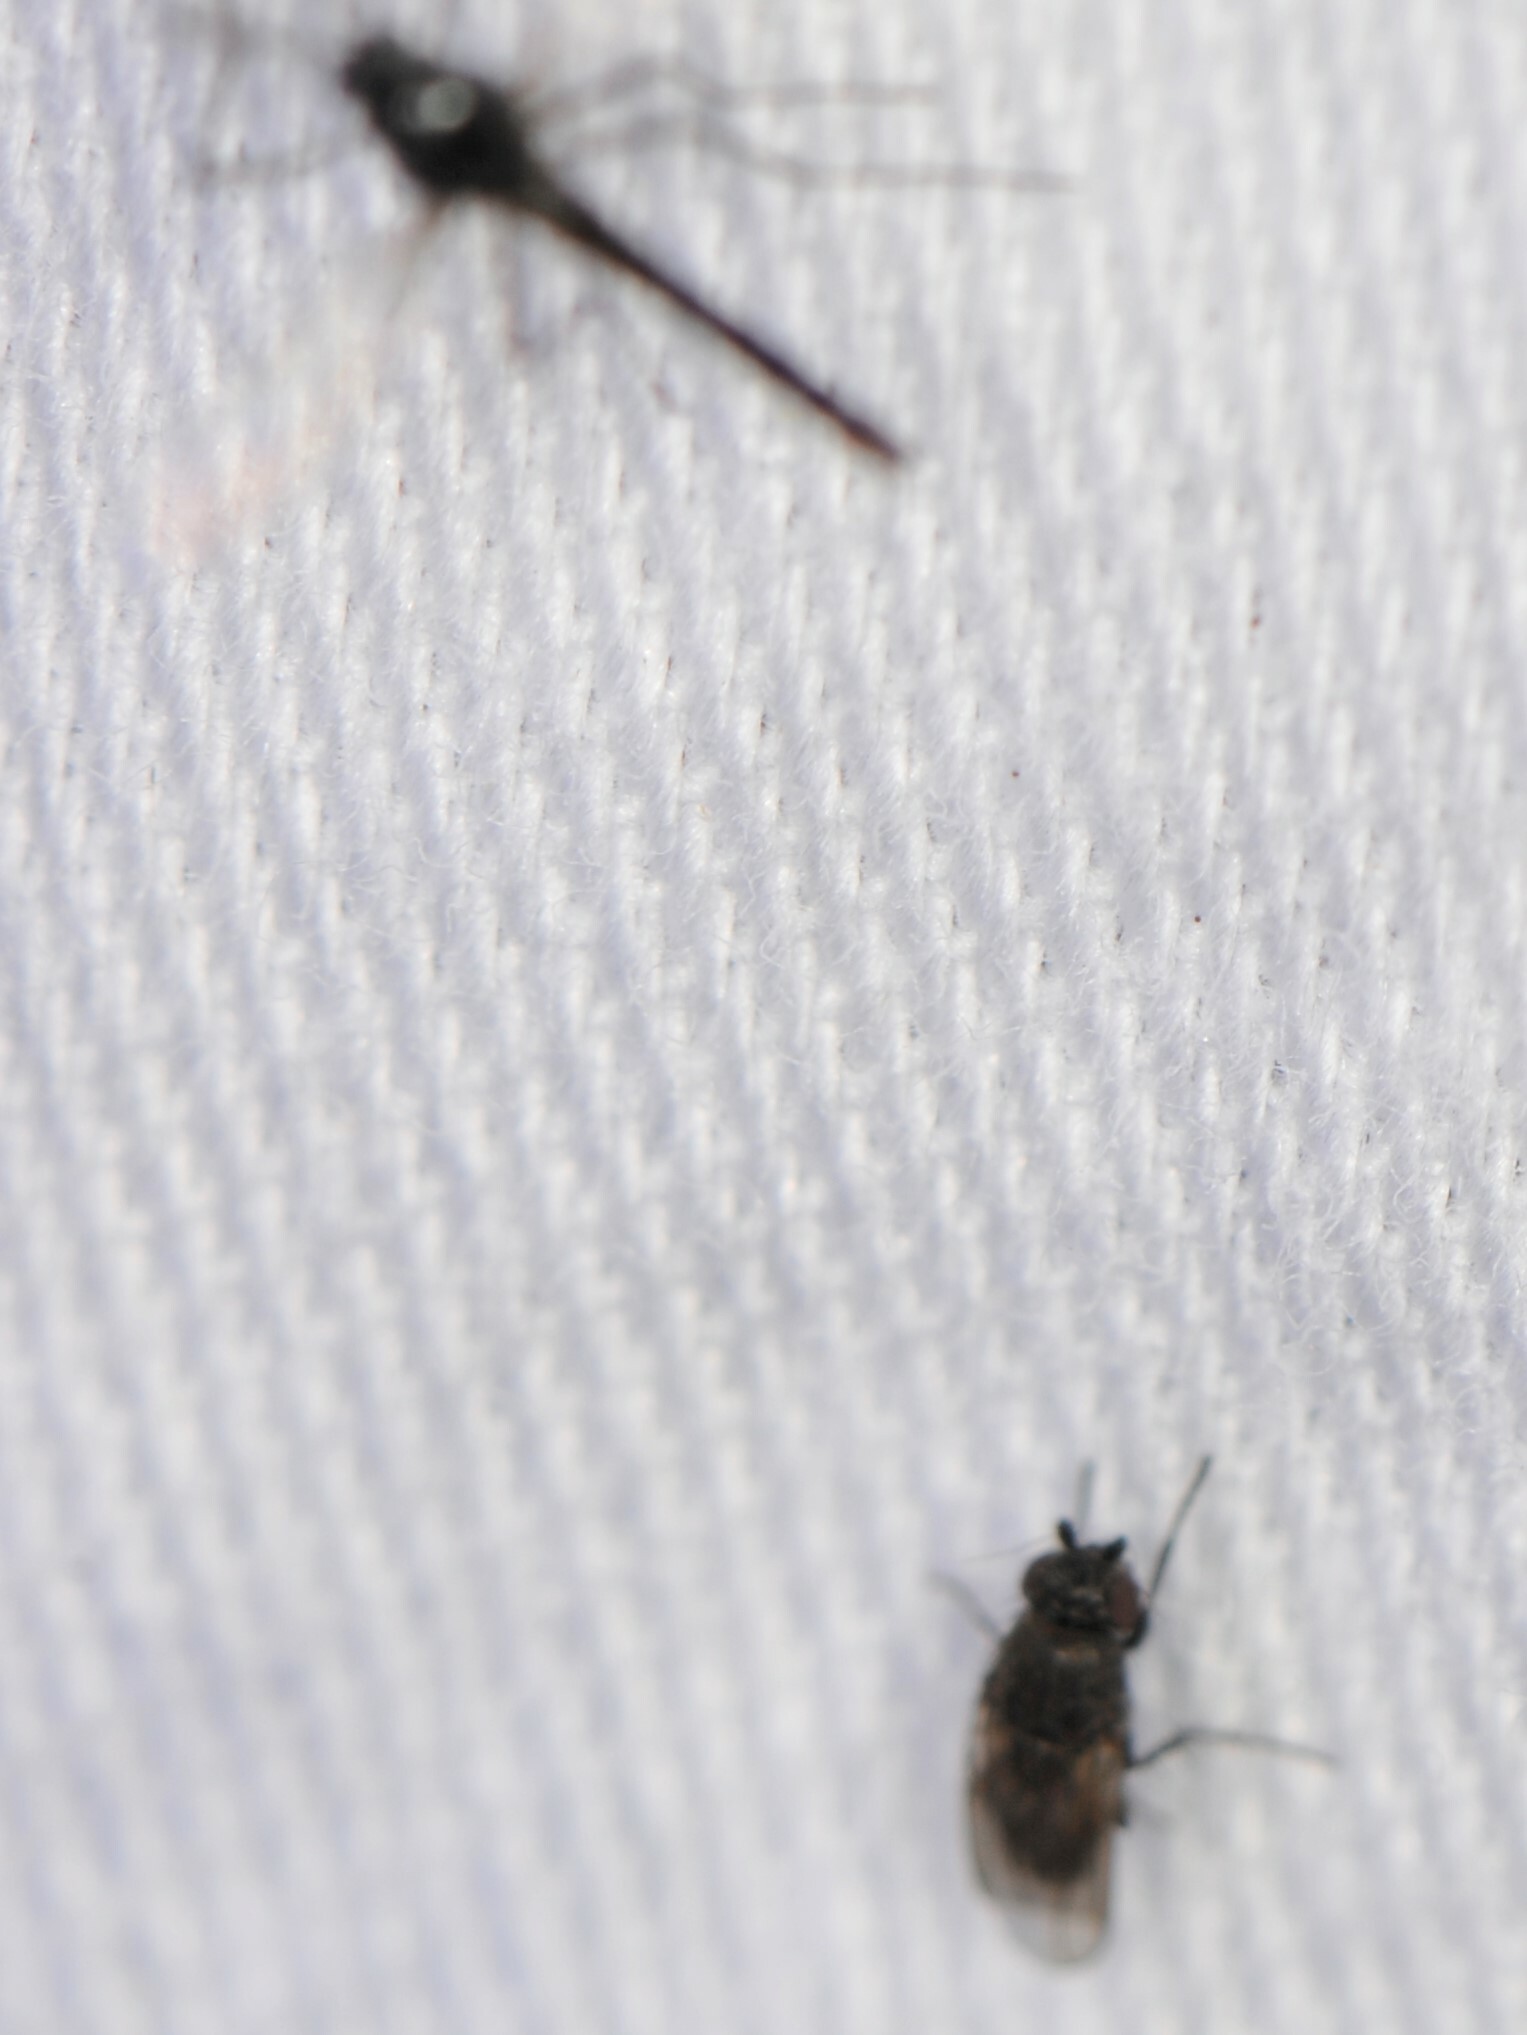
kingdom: Animalia
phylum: Arthropoda
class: Insecta
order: Diptera
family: Sphaeroceridae
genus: Rachispoda
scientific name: Rachispoda
